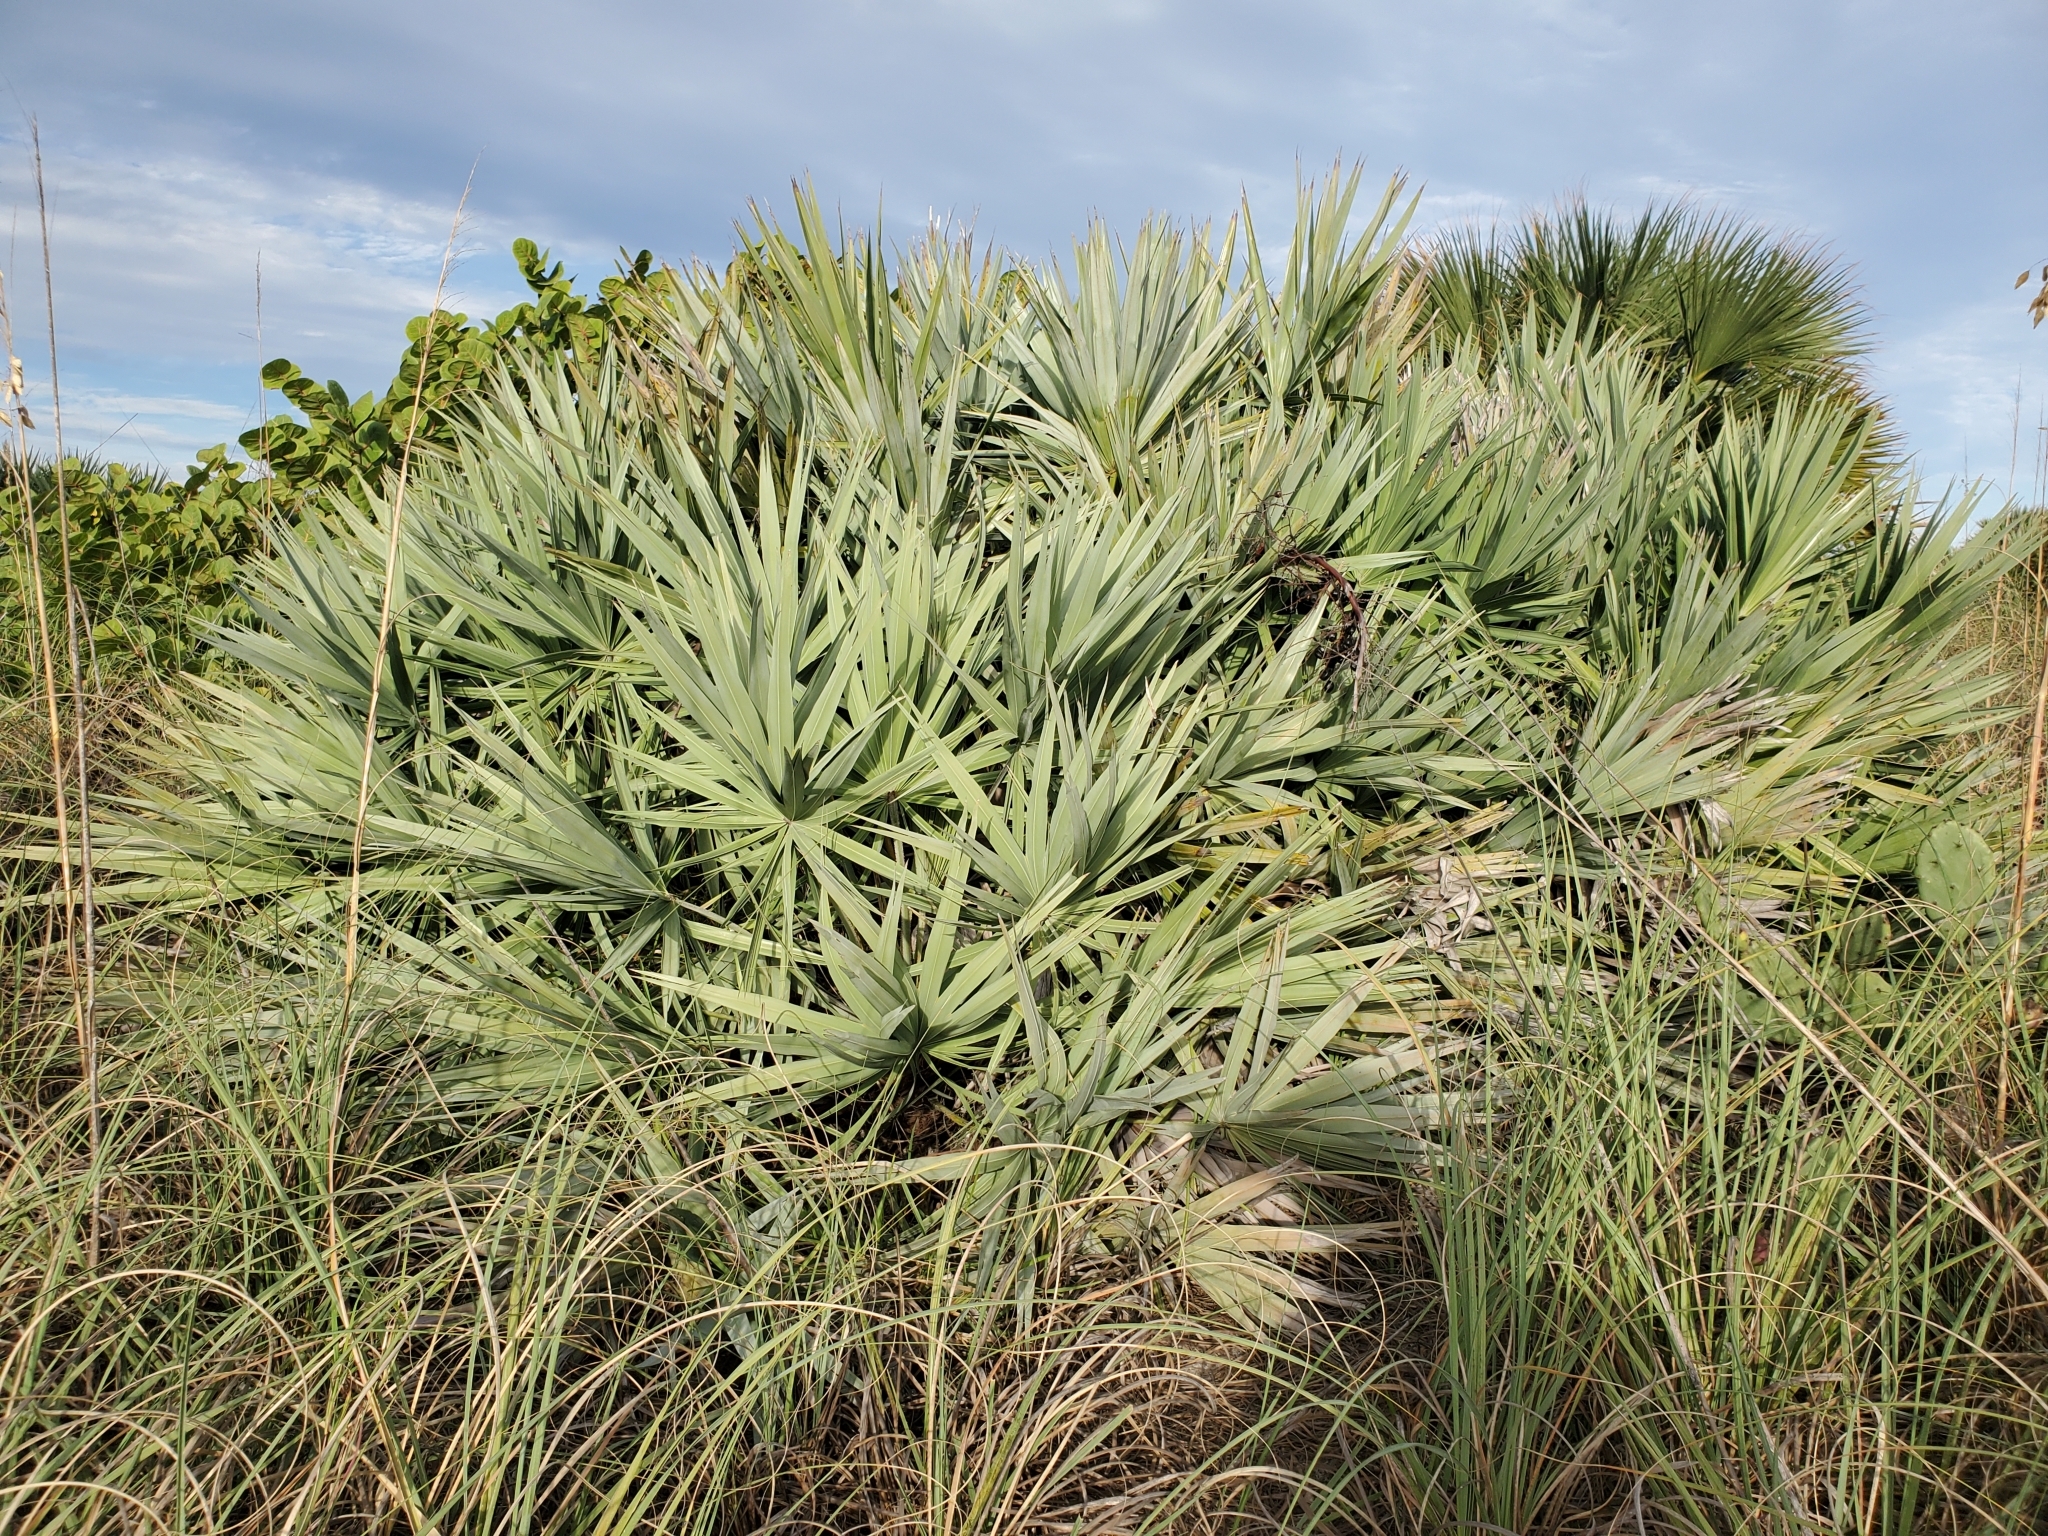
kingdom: Plantae
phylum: Tracheophyta
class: Liliopsida
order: Arecales
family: Arecaceae
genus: Serenoa
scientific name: Serenoa repens
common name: Saw-palmetto
